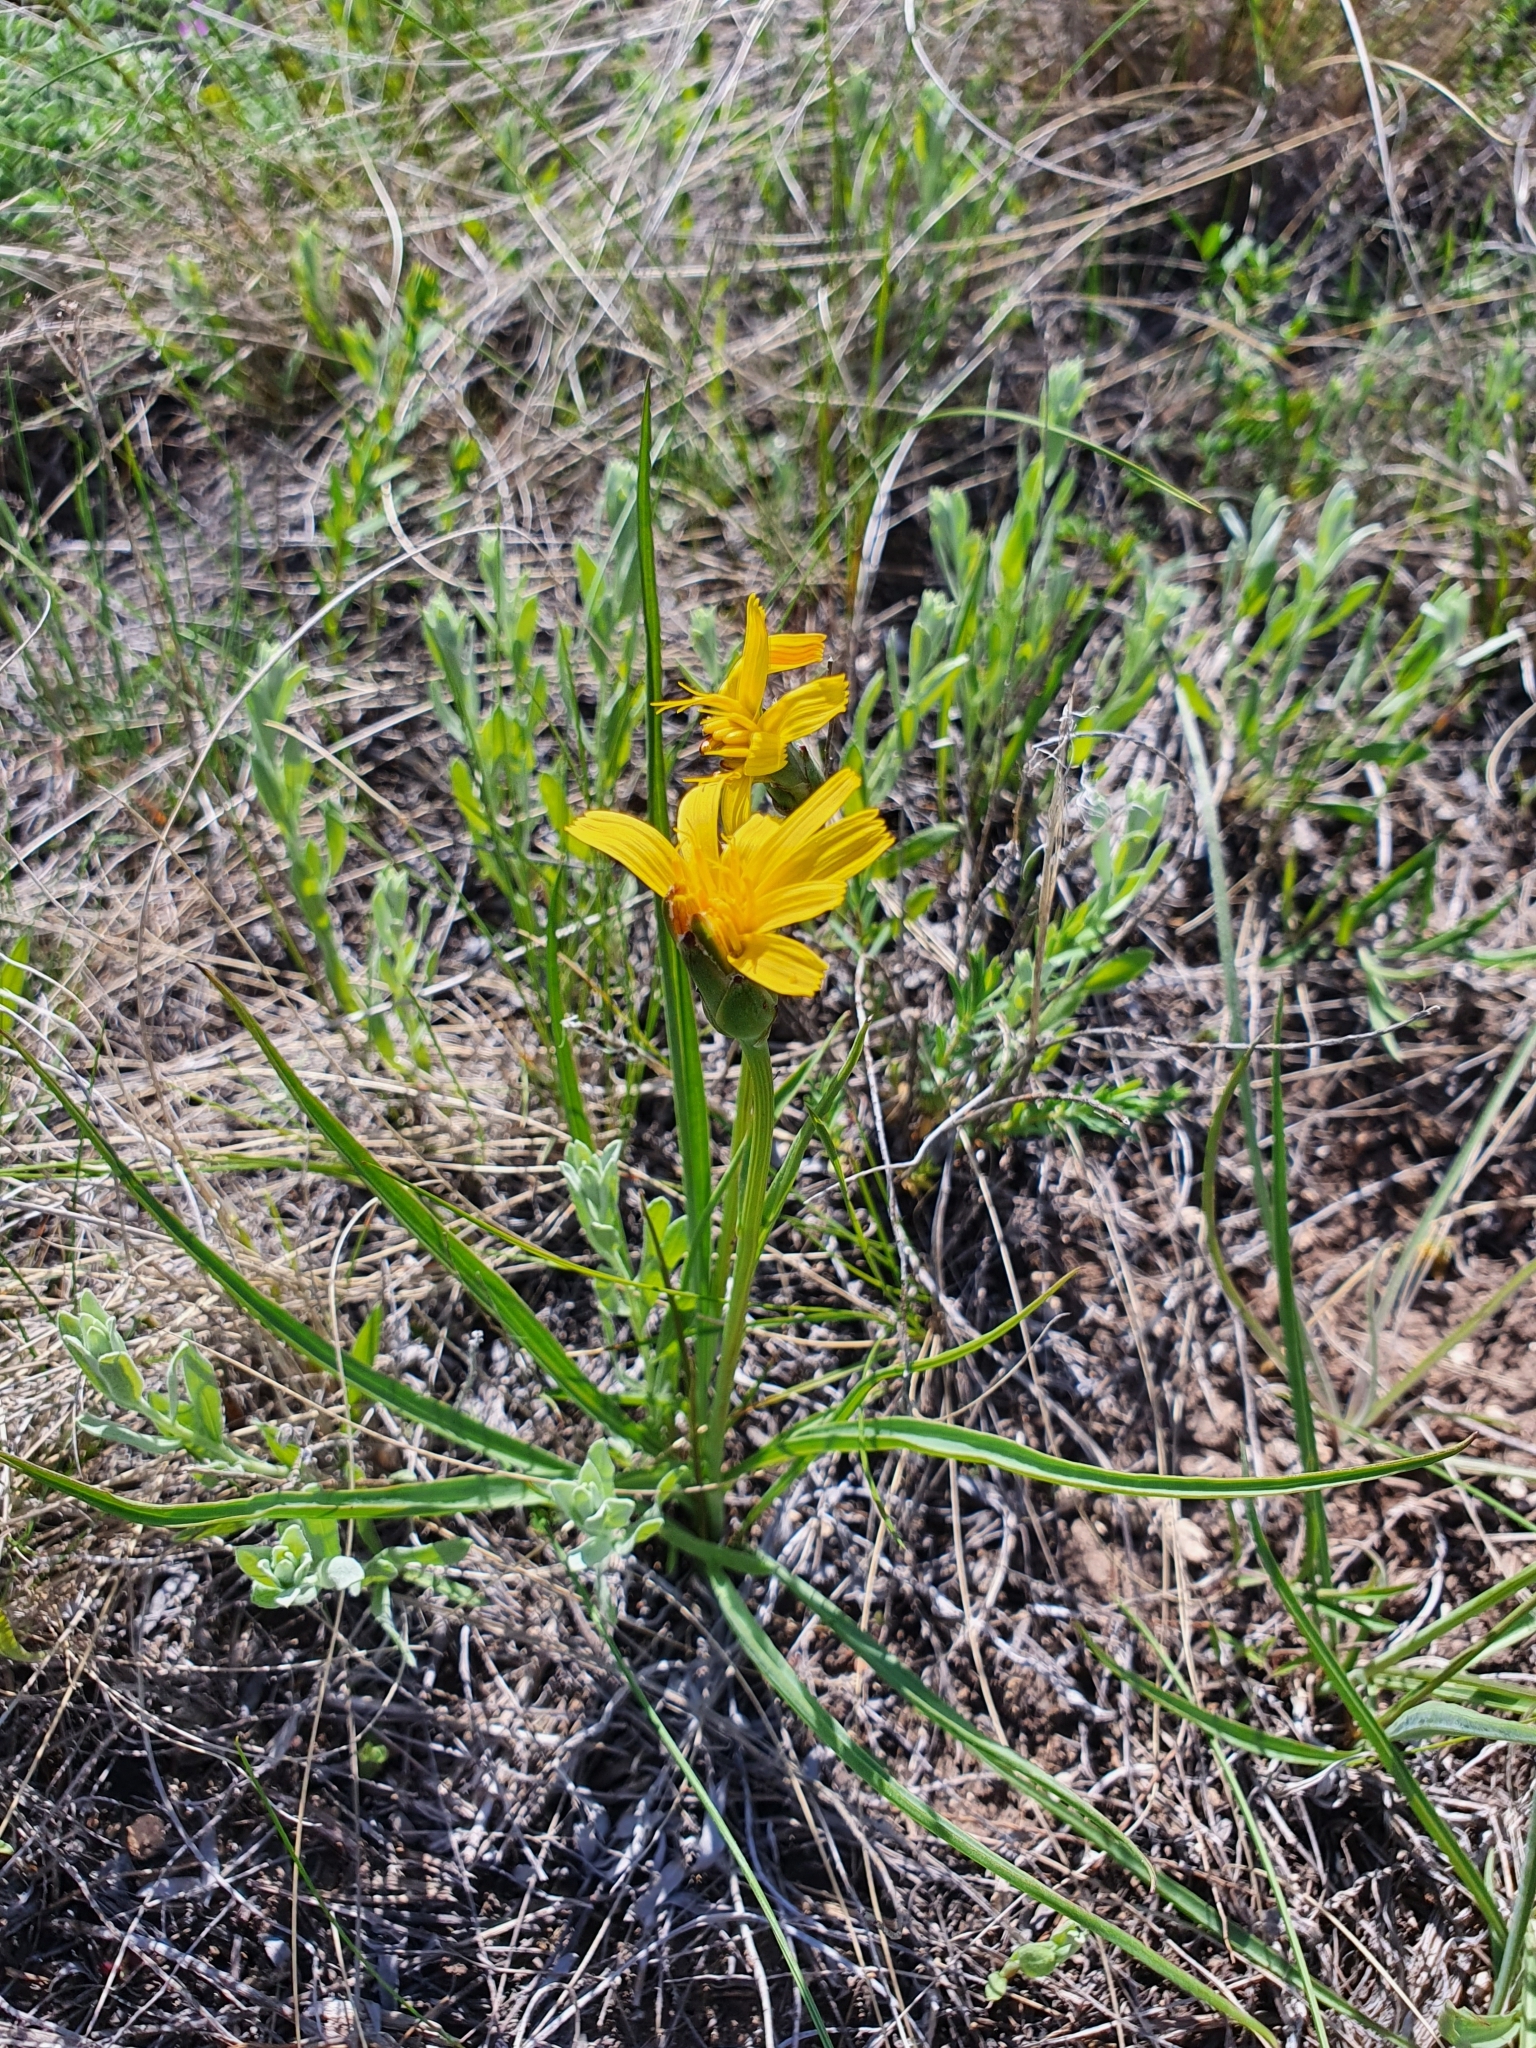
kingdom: Plantae
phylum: Tracheophyta
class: Magnoliopsida
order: Asterales
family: Asteraceae
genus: Takhtajaniantha
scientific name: Takhtajaniantha austriaca
